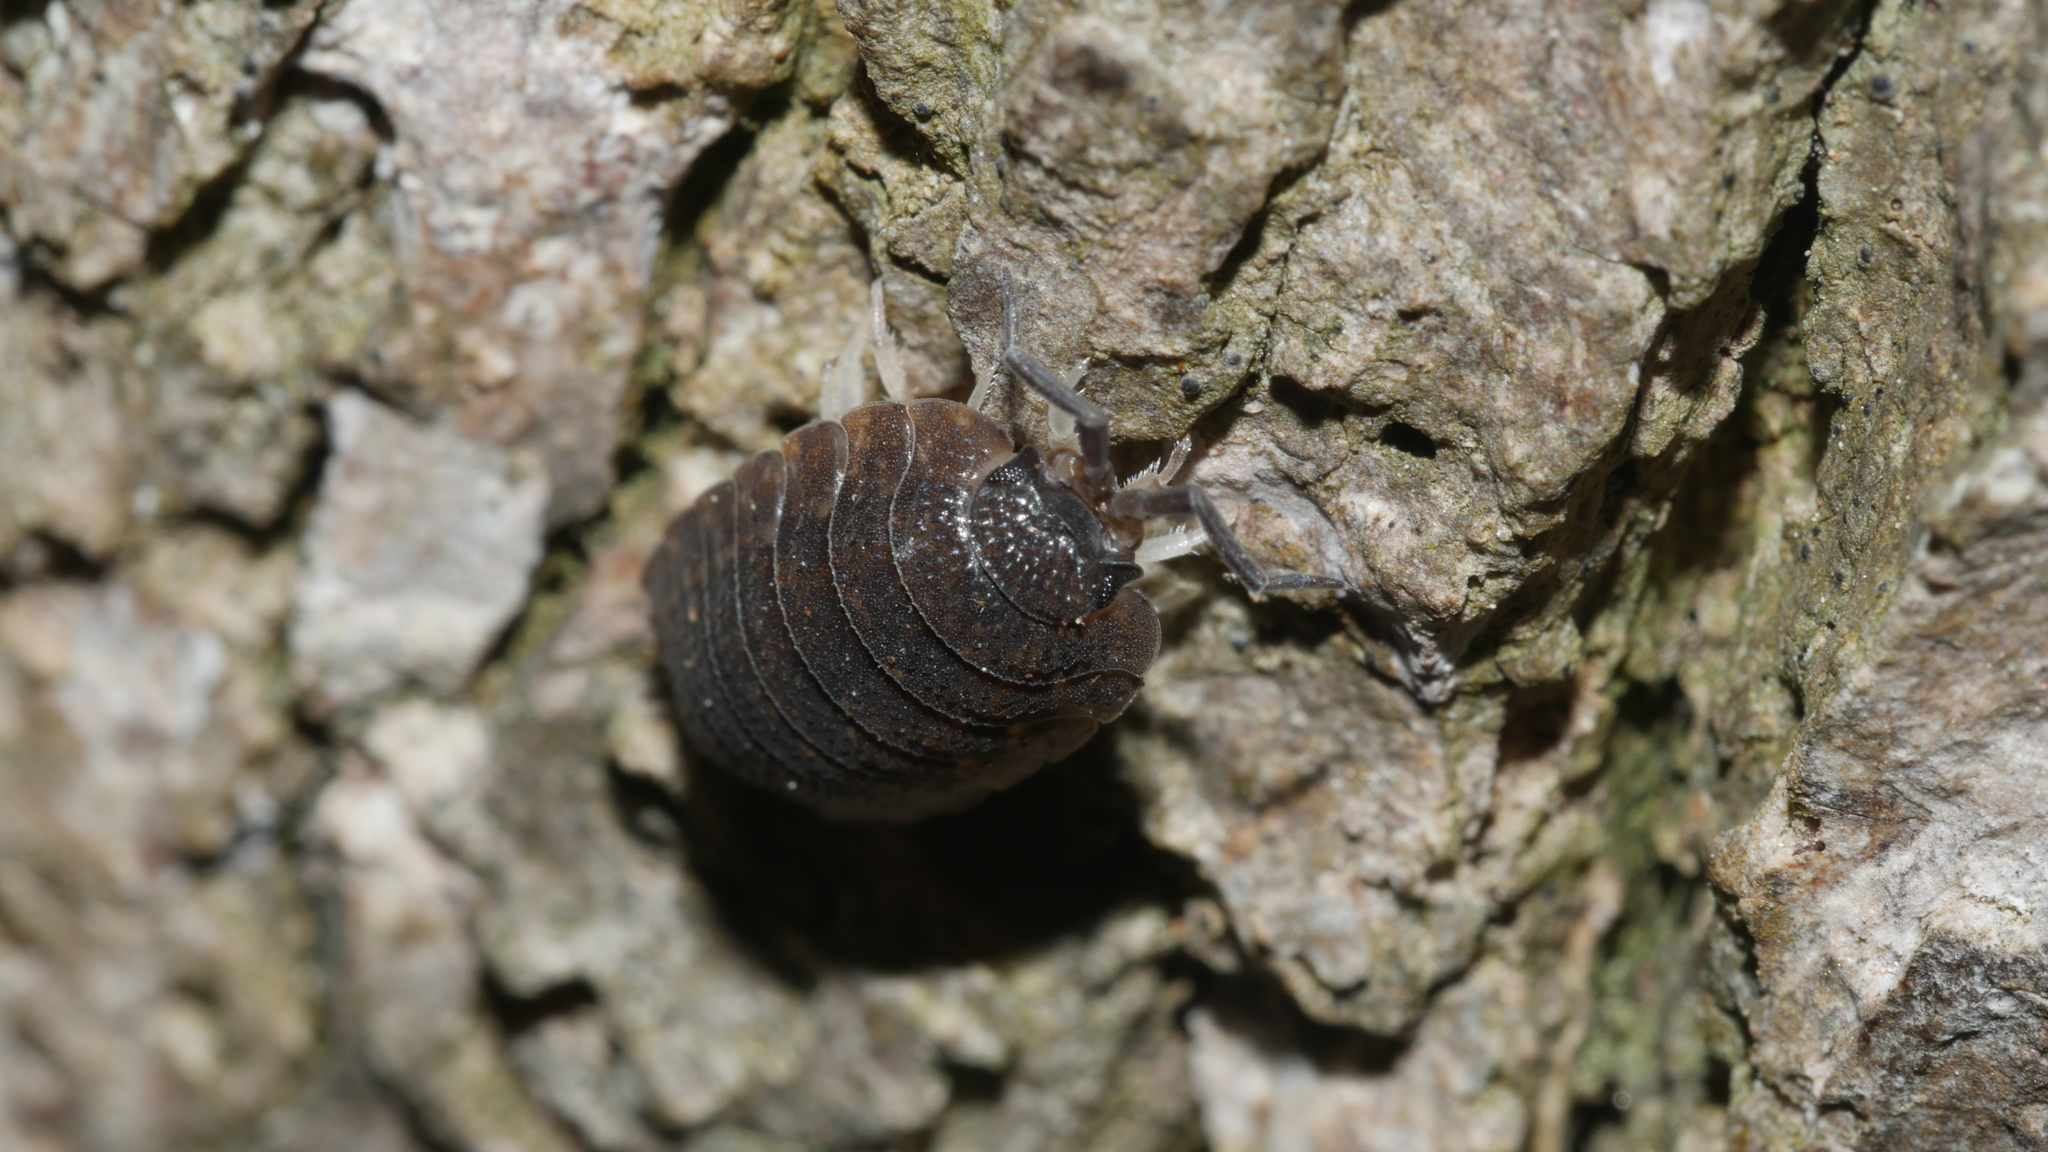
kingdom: Animalia
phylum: Arthropoda
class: Malacostraca
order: Isopoda
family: Porcellionidae
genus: Porcellio
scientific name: Porcellio scaber
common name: Common rough woodlouse
